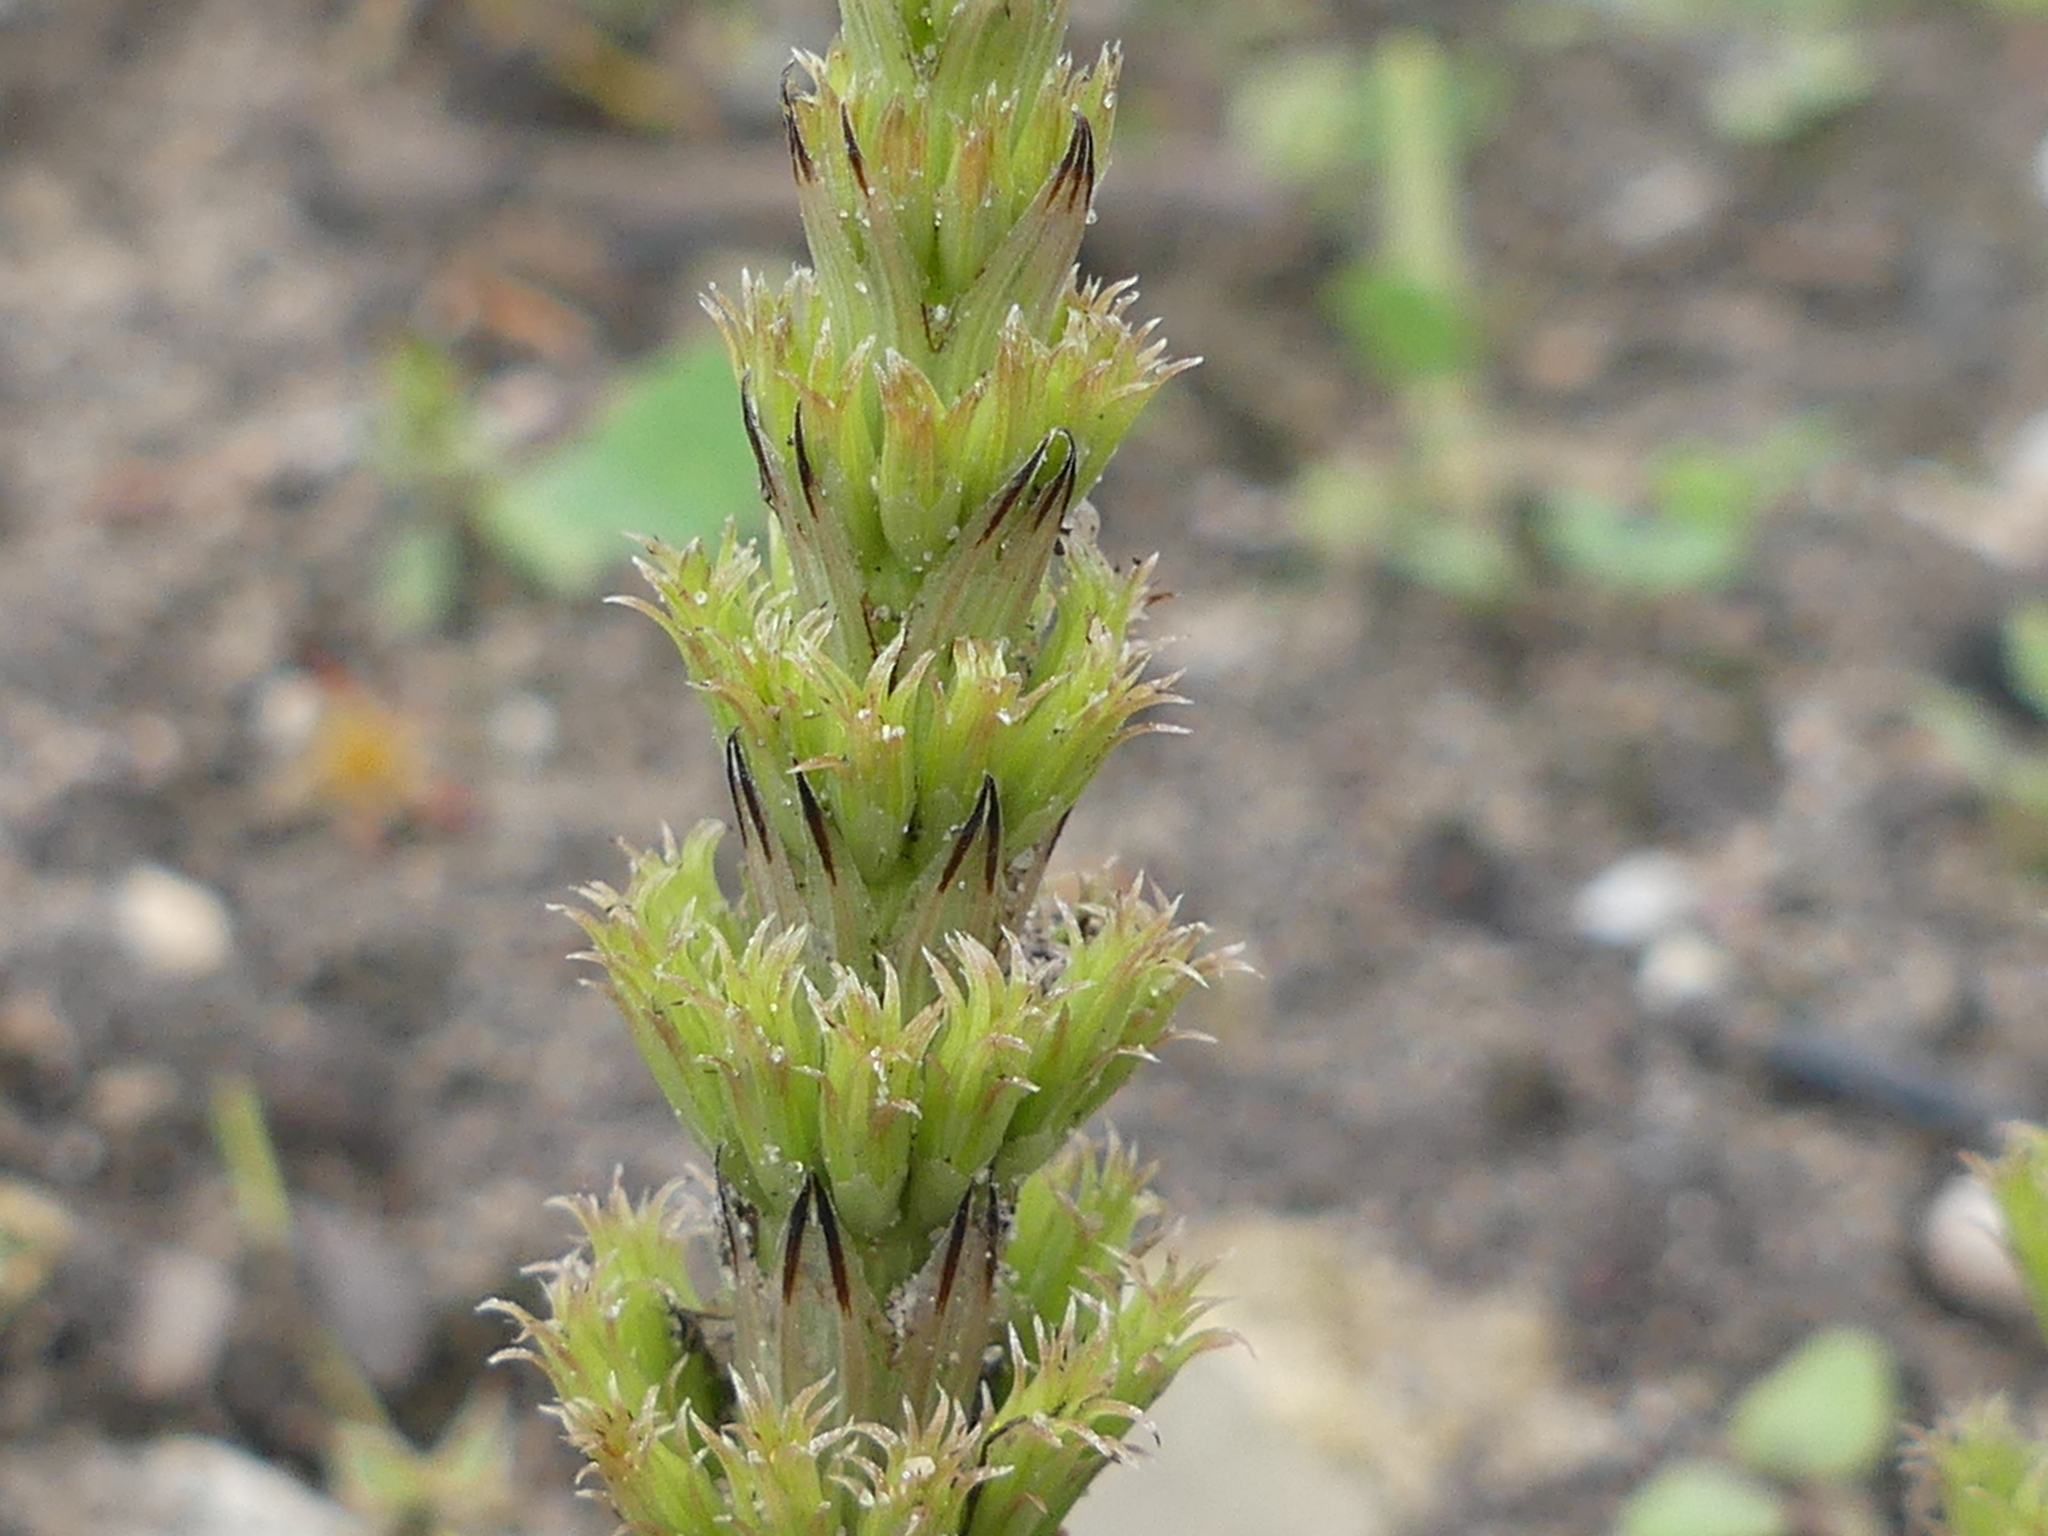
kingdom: Plantae
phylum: Tracheophyta
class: Polypodiopsida
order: Equisetales
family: Equisetaceae
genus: Equisetum
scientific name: Equisetum arvense
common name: Field horsetail
